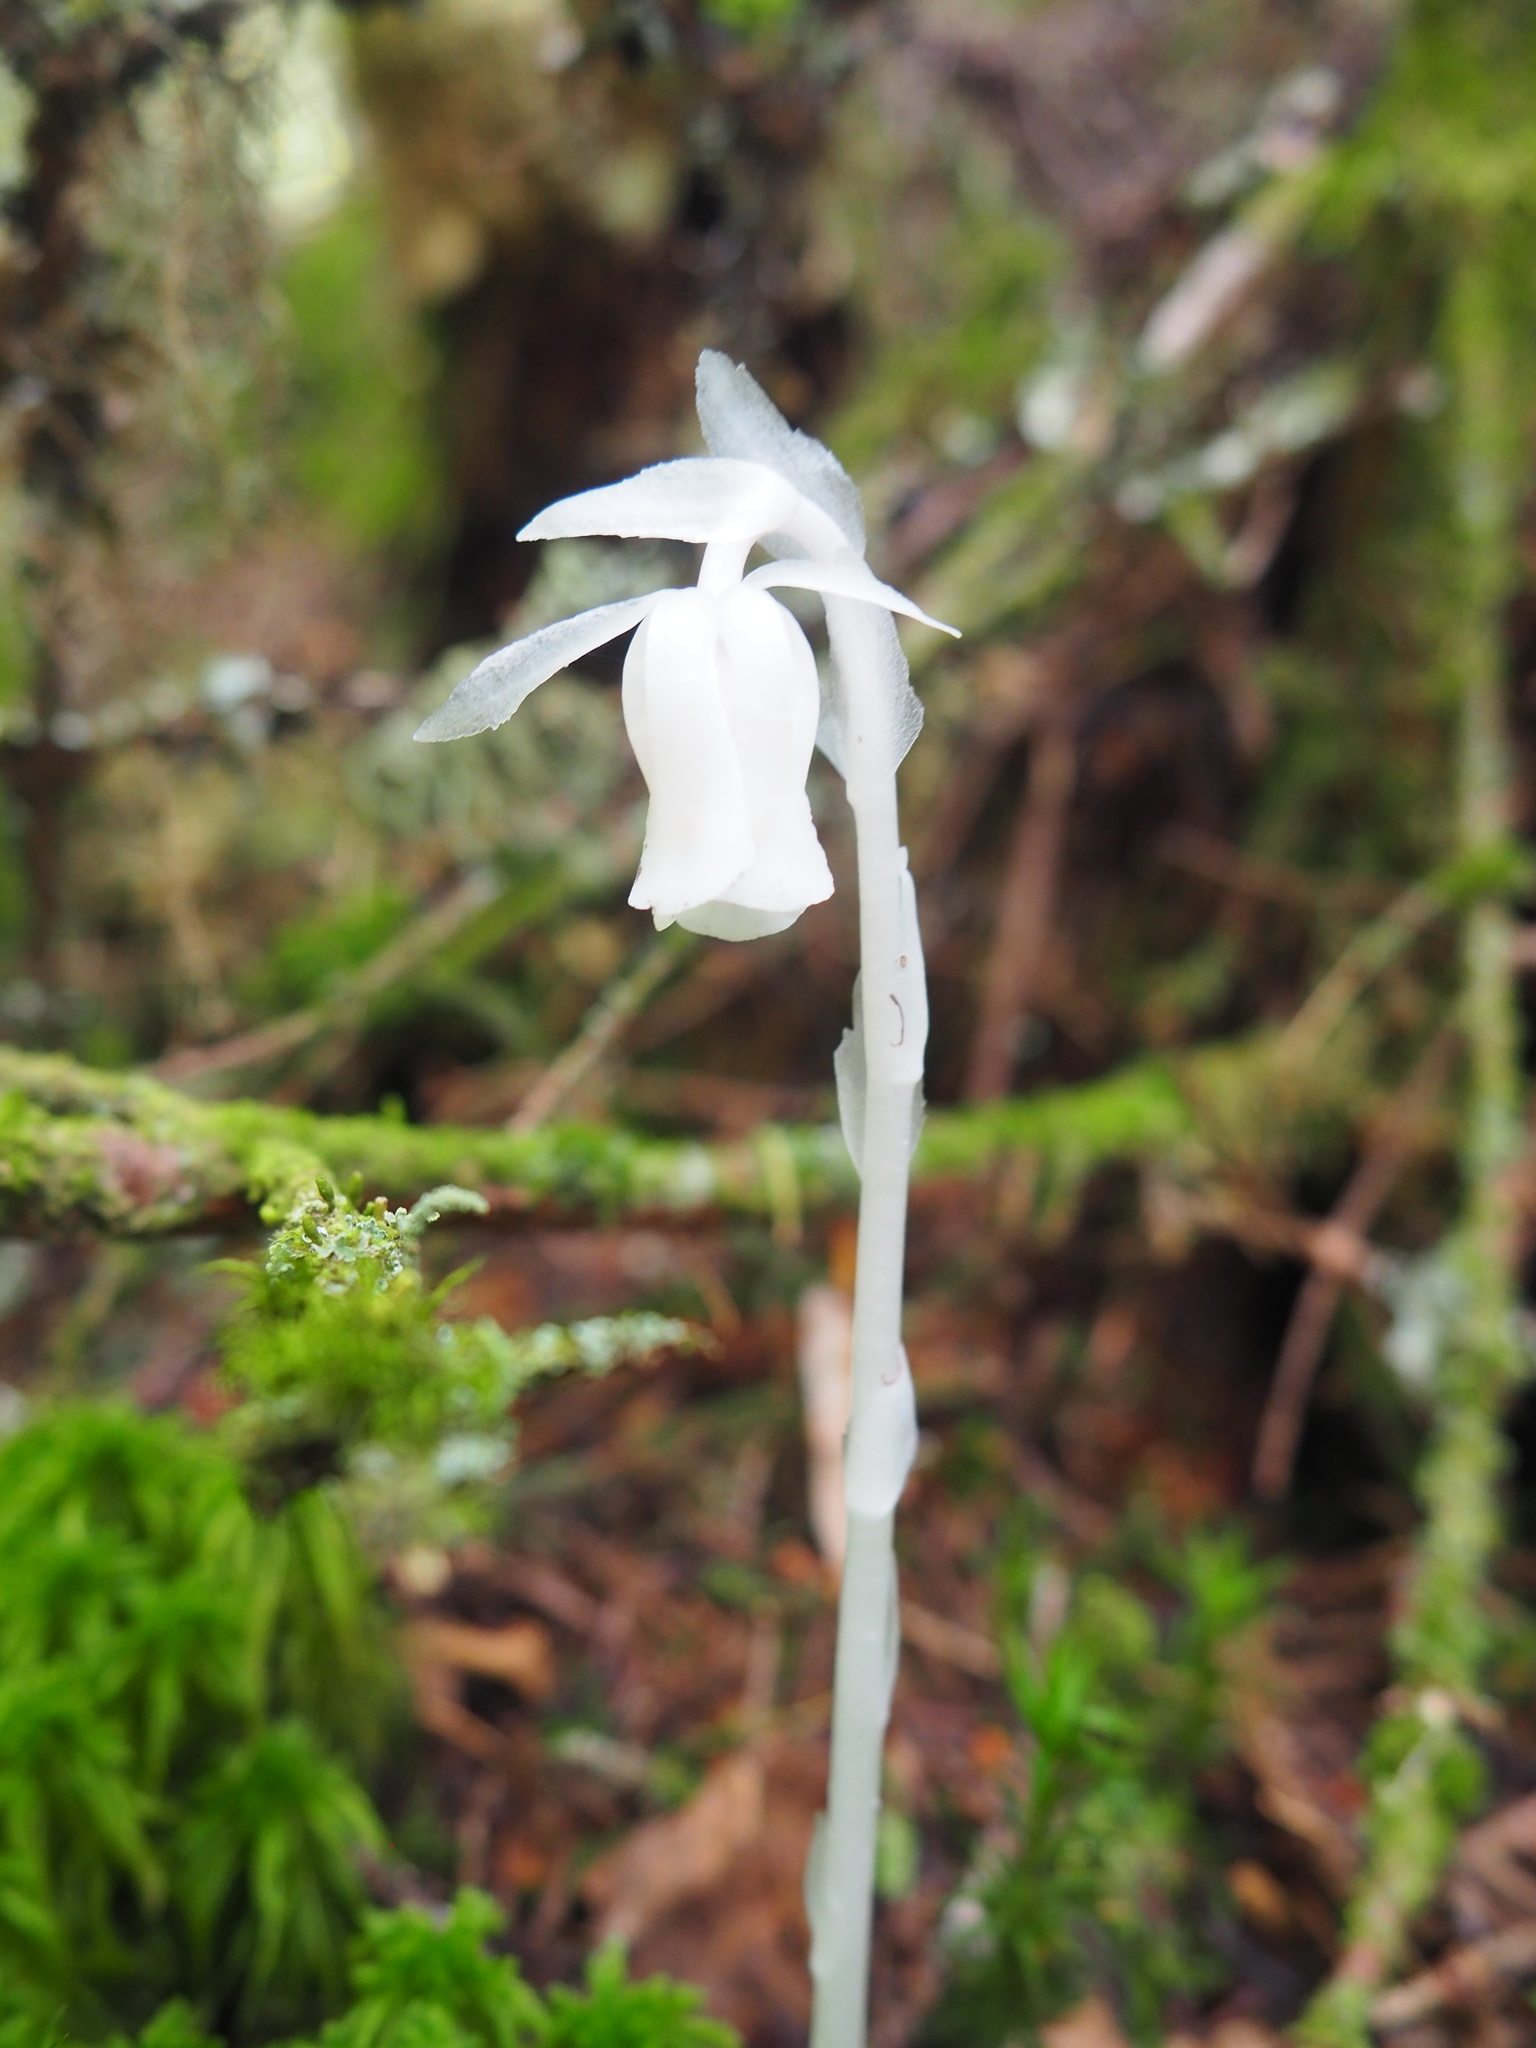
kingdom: Plantae
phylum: Tracheophyta
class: Magnoliopsida
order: Ericales
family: Ericaceae
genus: Monotropa
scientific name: Monotropa uniflora
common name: Convulsion root
